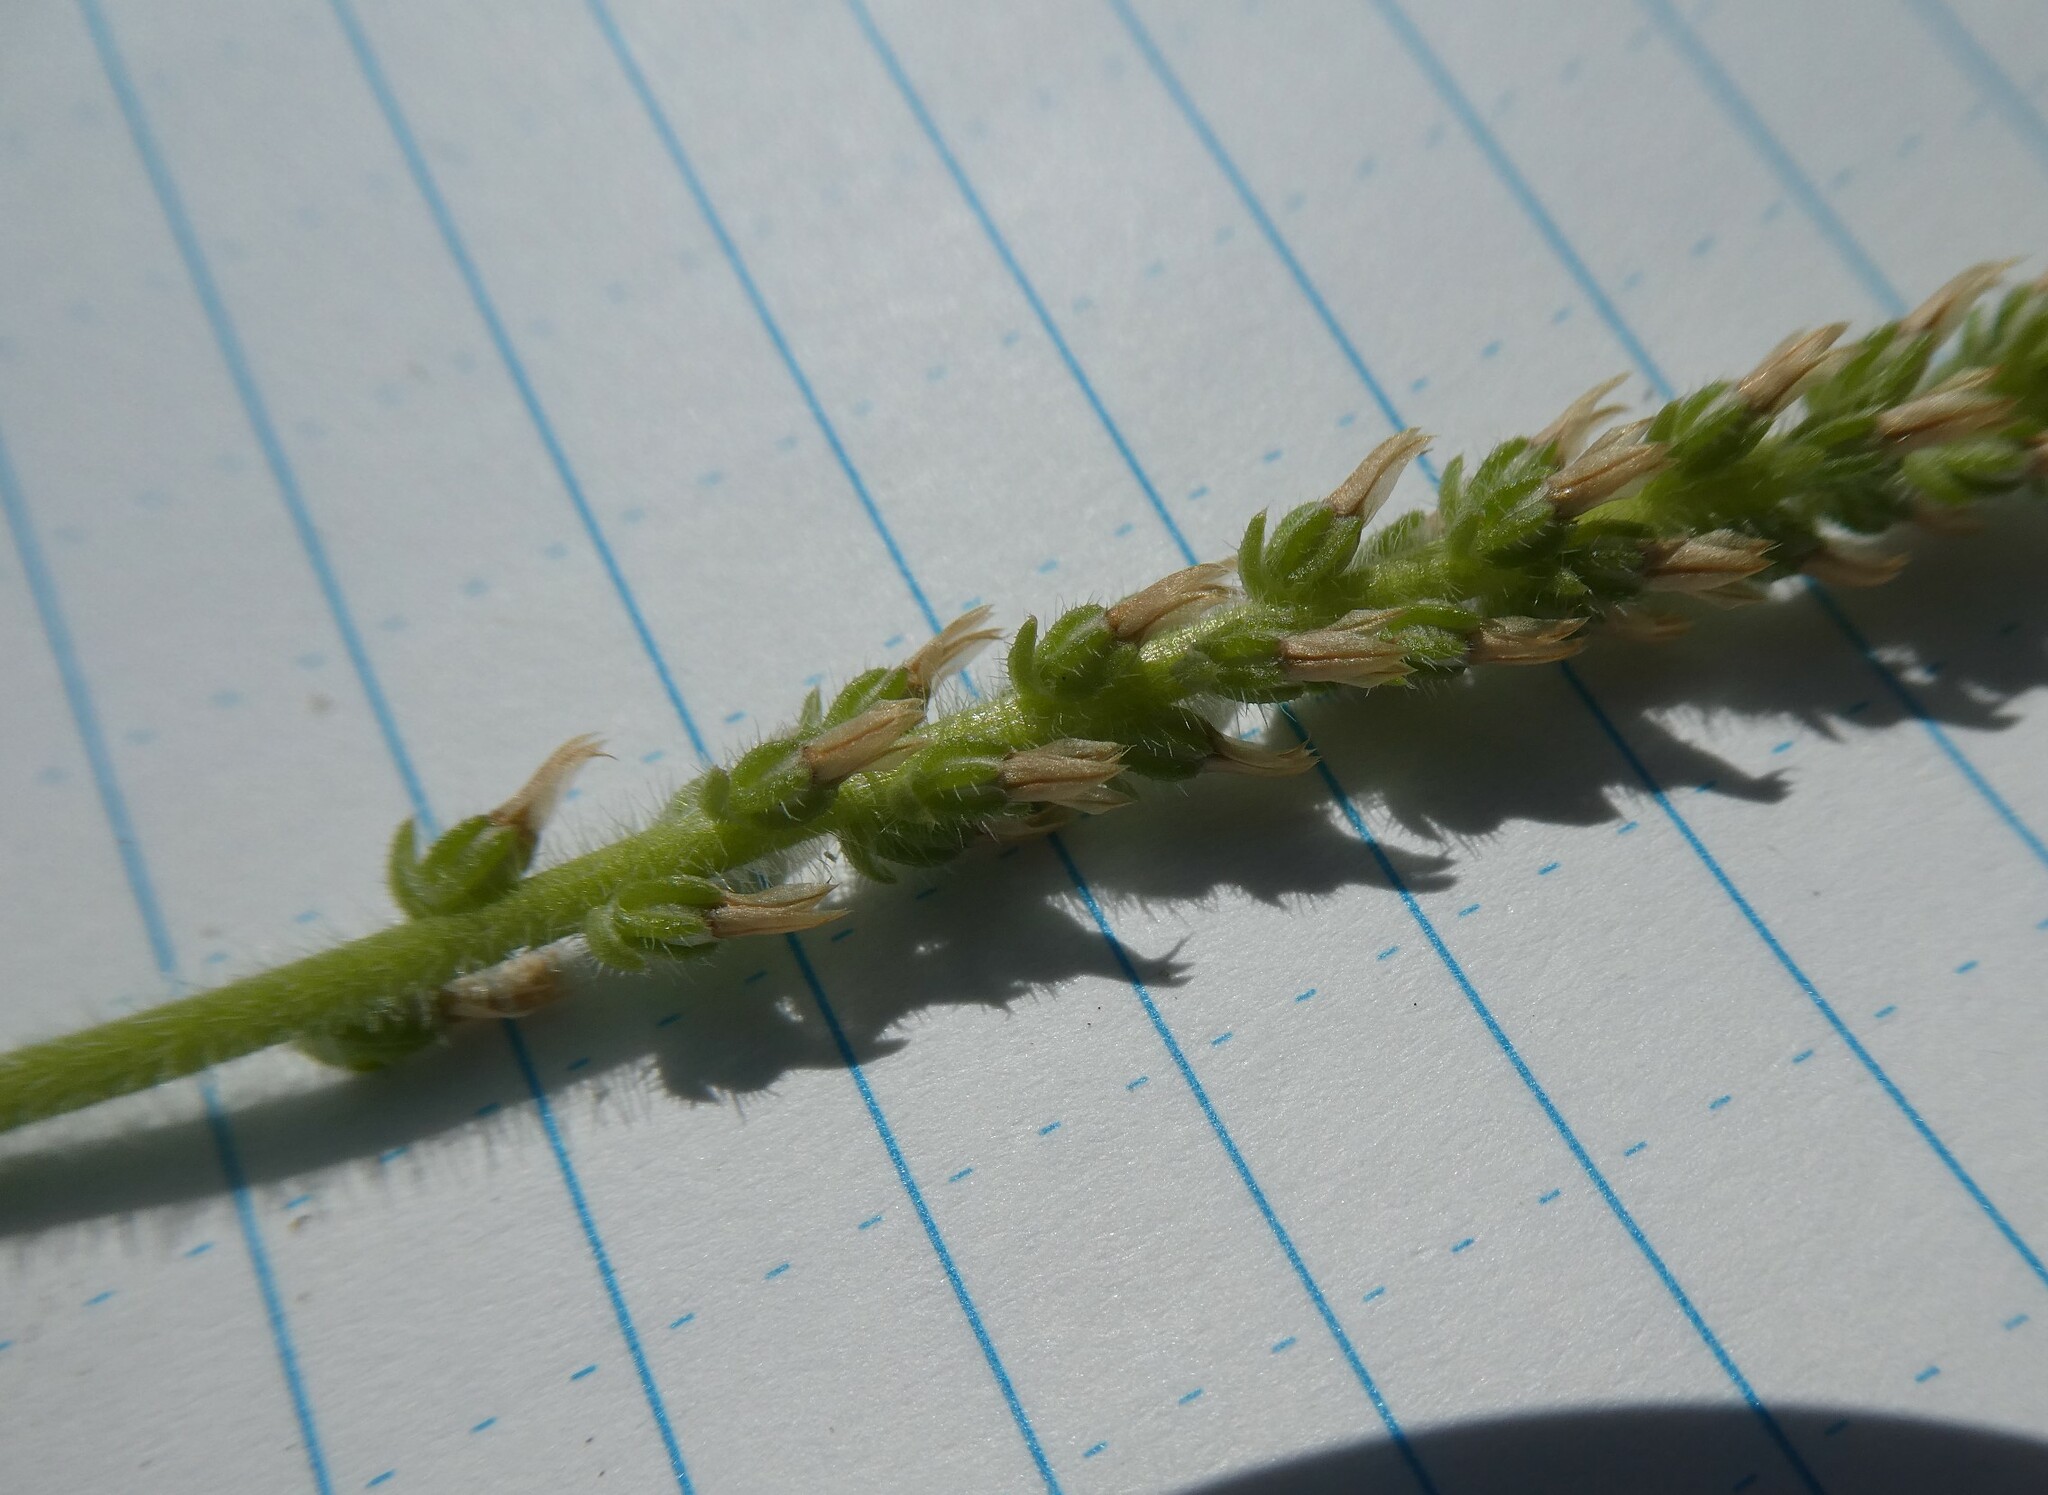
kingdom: Plantae
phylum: Tracheophyta
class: Magnoliopsida
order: Lamiales
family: Plantaginaceae
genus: Plantago
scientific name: Plantago virginica
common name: Hoary plantain
